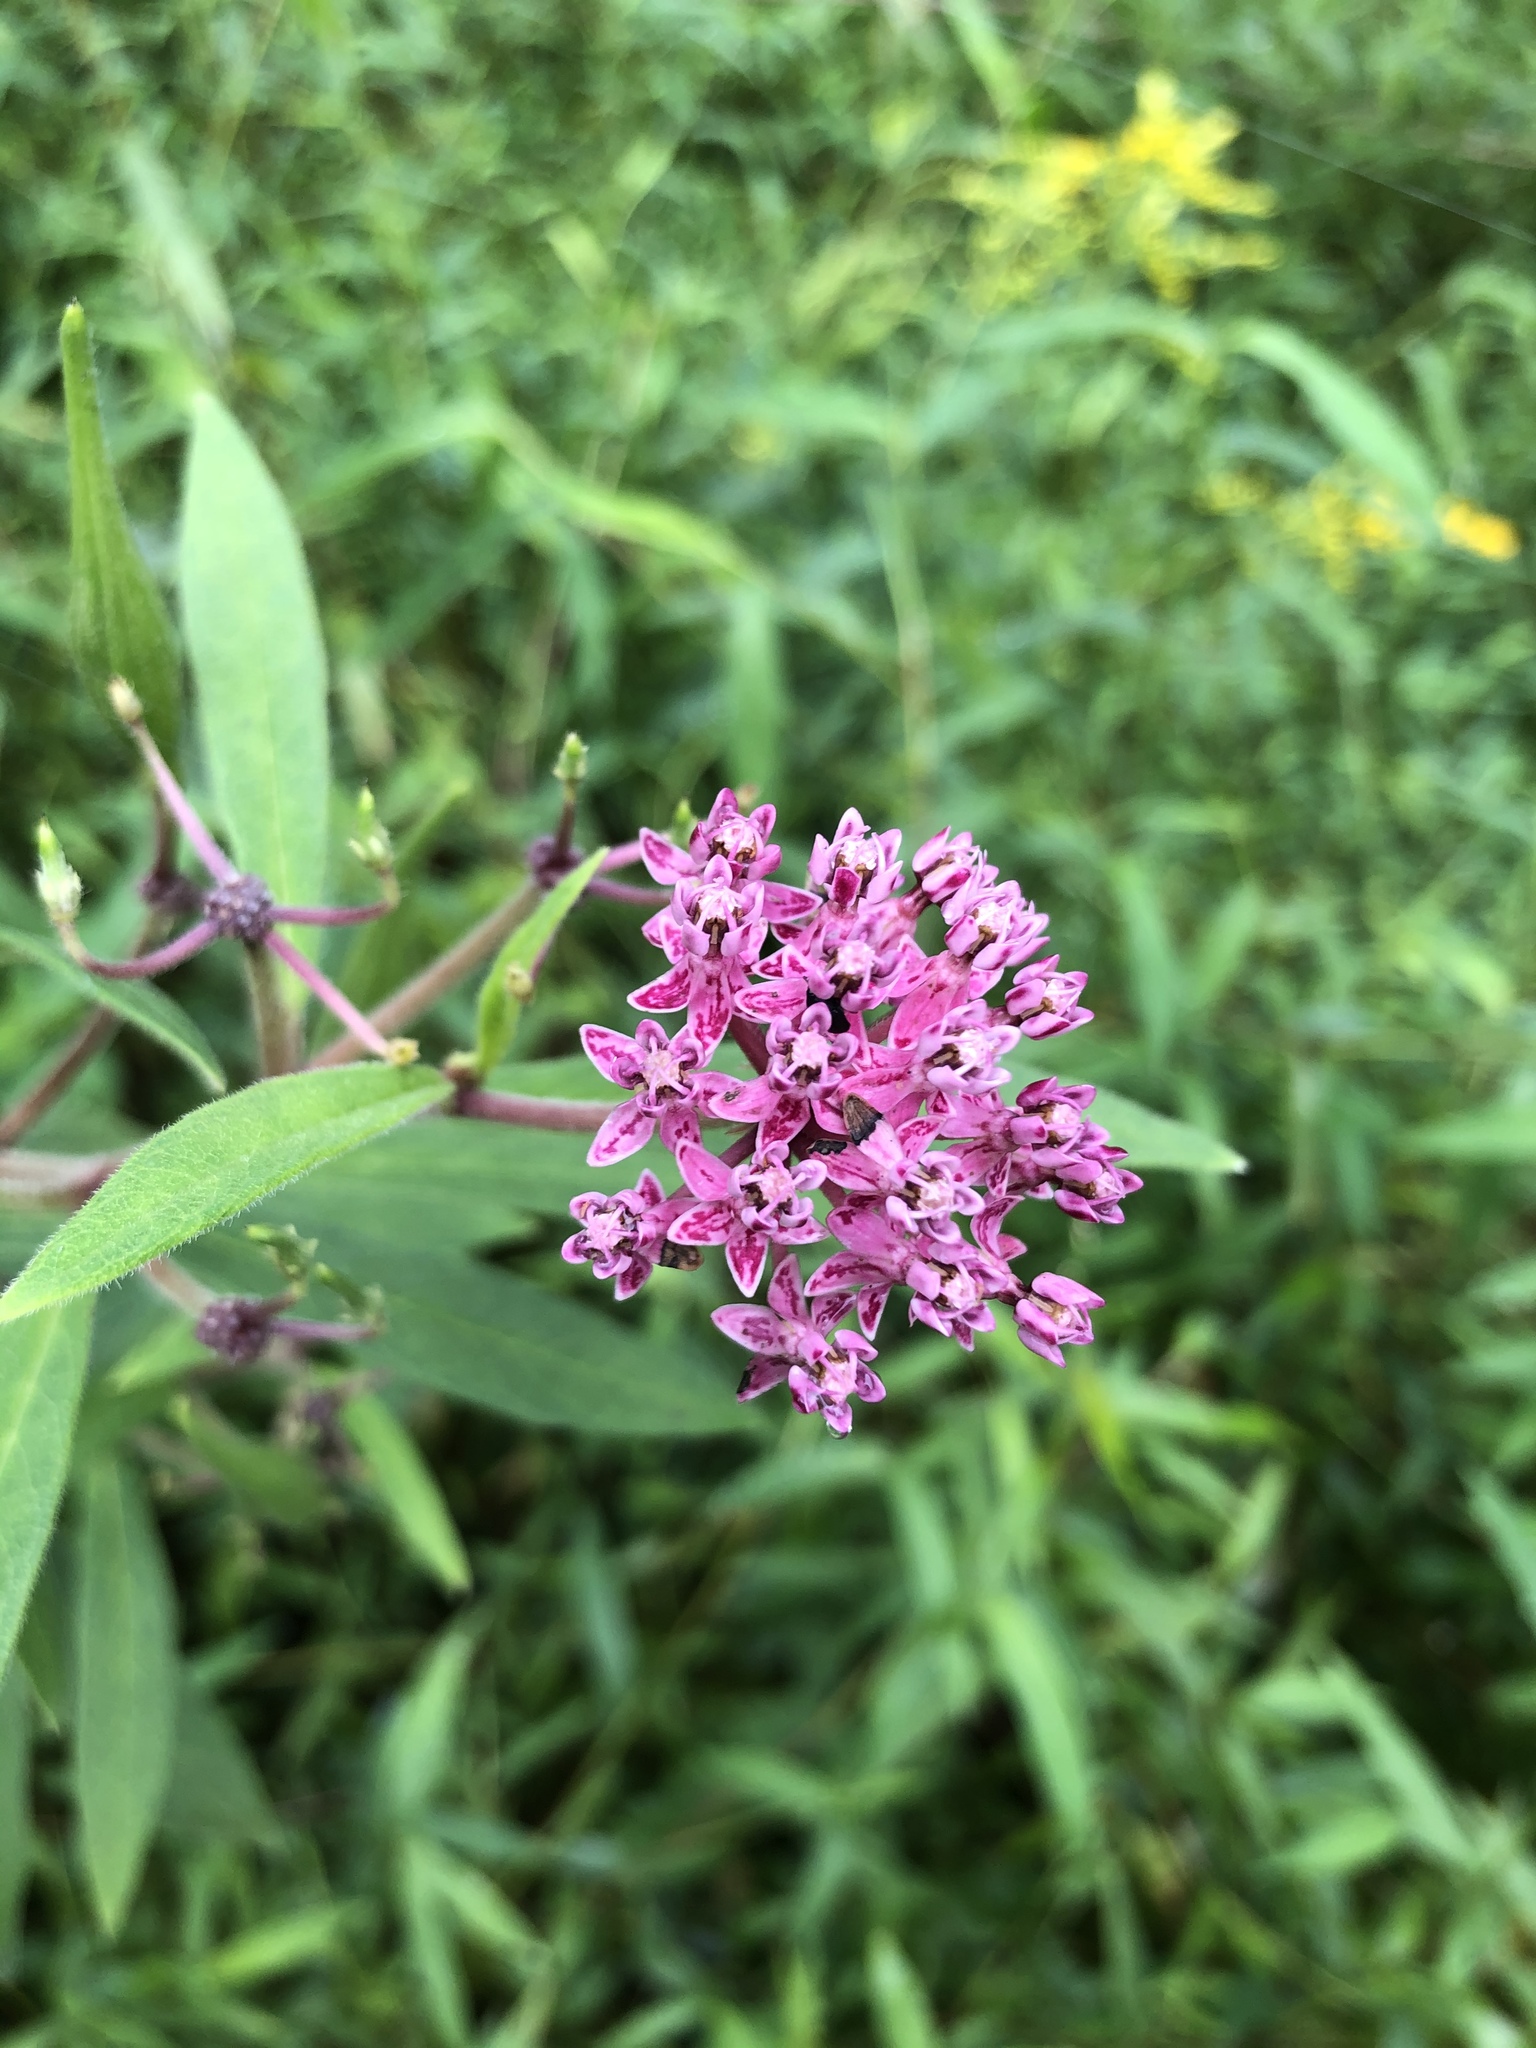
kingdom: Plantae
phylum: Tracheophyta
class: Magnoliopsida
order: Gentianales
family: Apocynaceae
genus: Asclepias
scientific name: Asclepias incarnata
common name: Swamp milkweed
